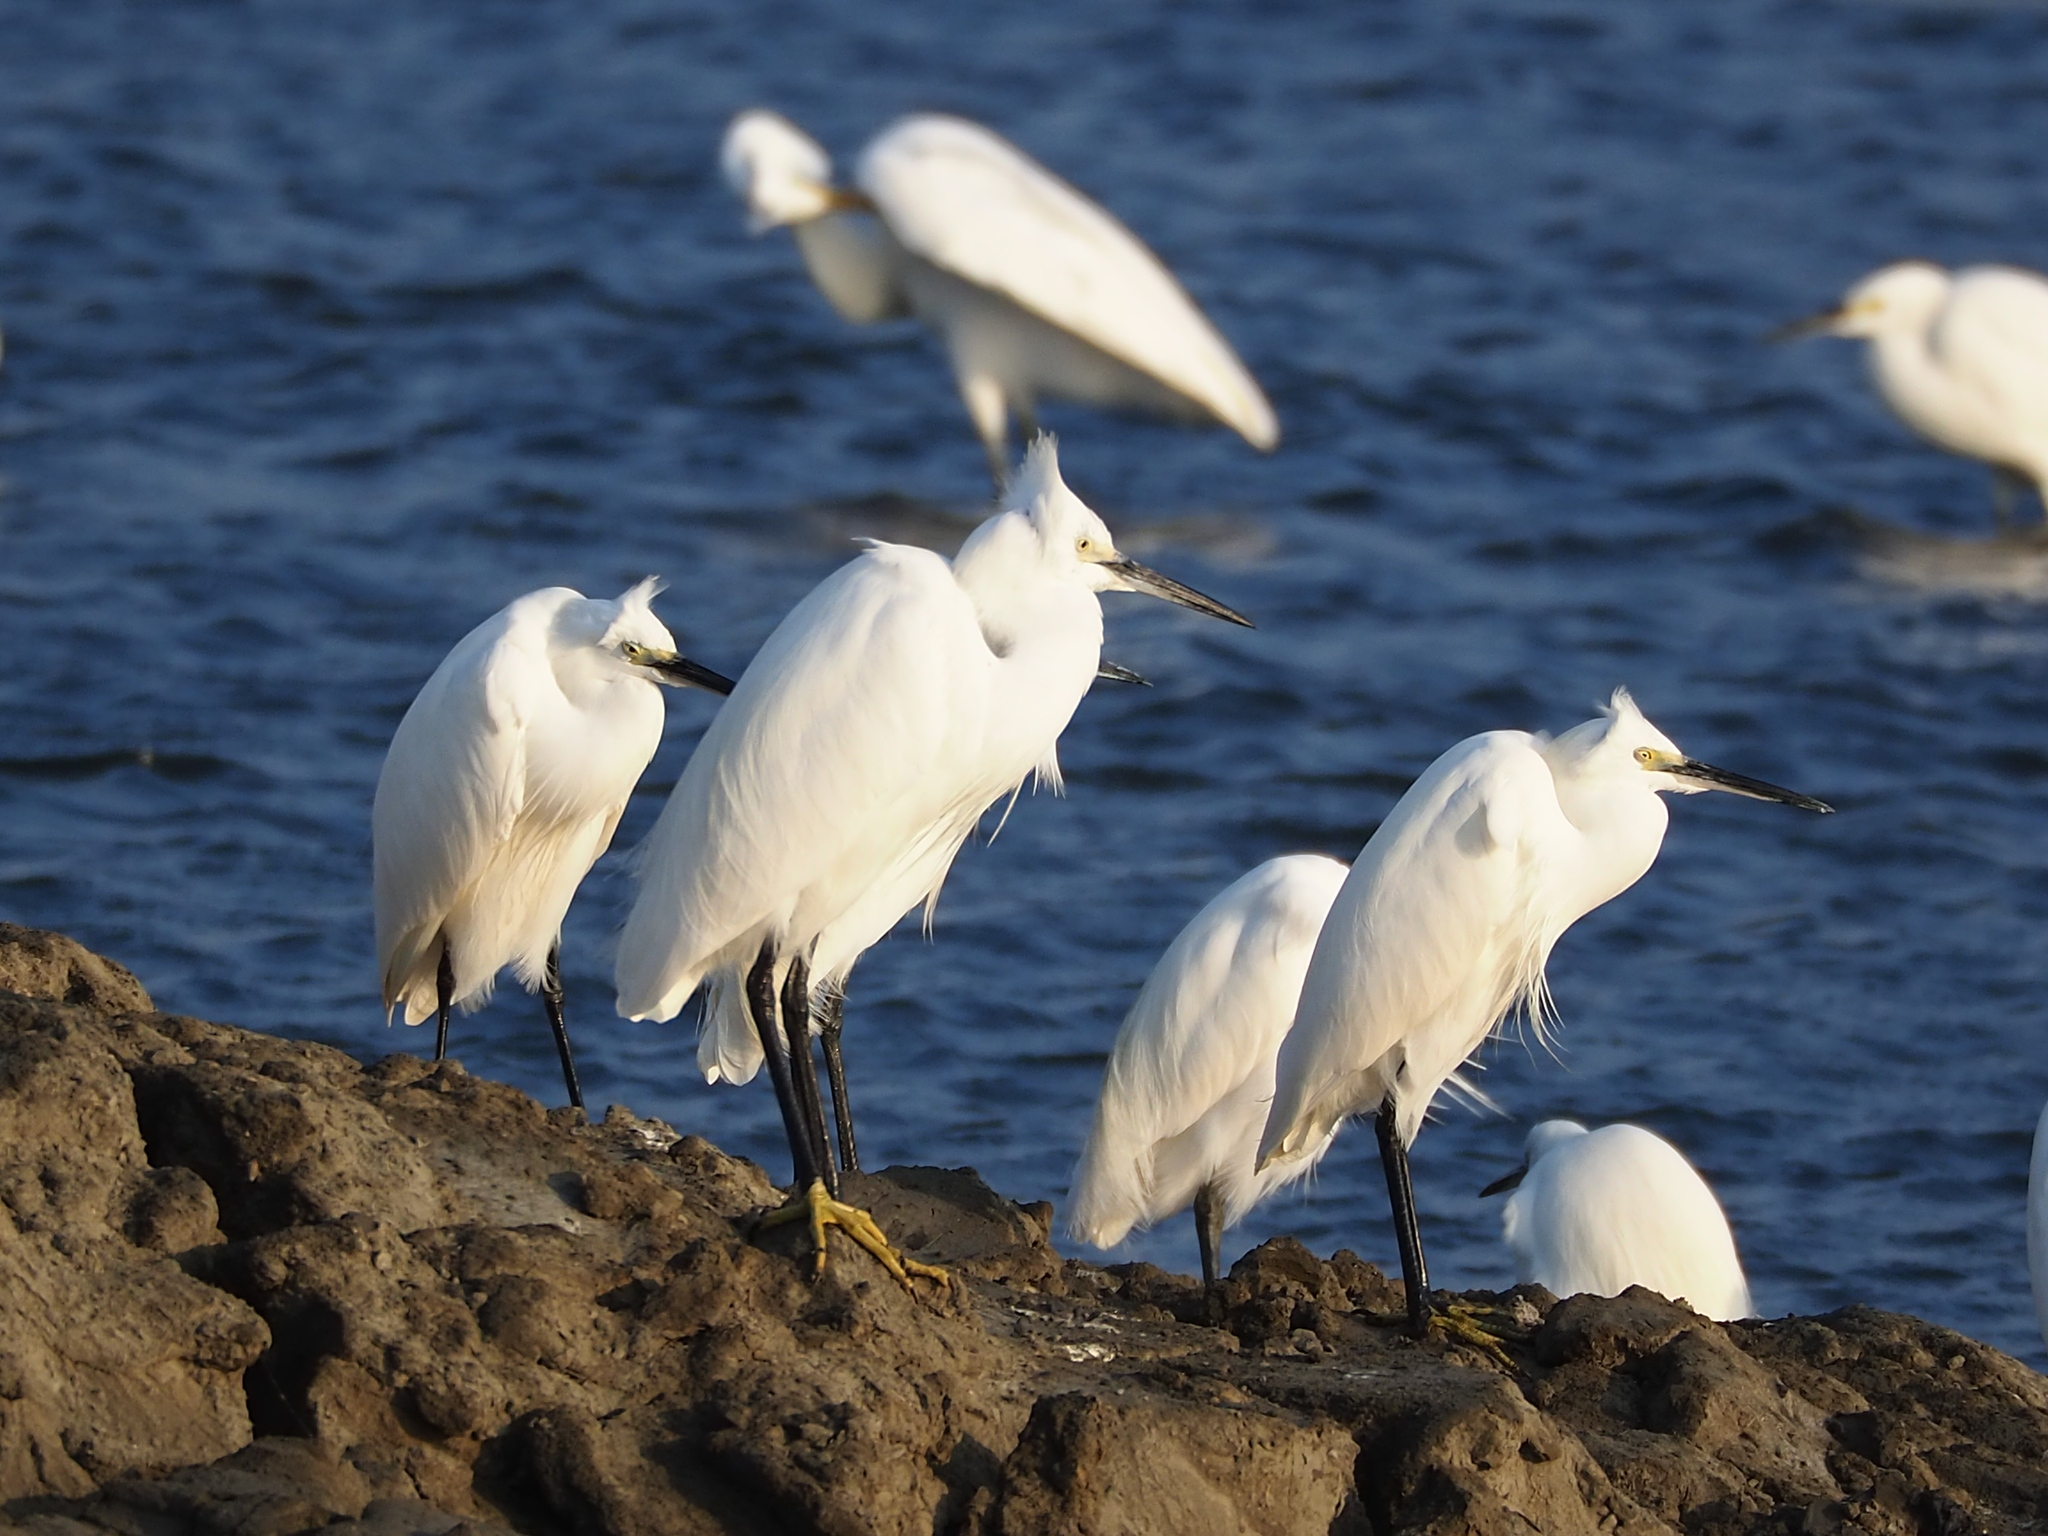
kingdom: Animalia
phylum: Chordata
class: Aves
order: Pelecaniformes
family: Ardeidae
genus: Egretta
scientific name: Egretta garzetta
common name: Little egret
